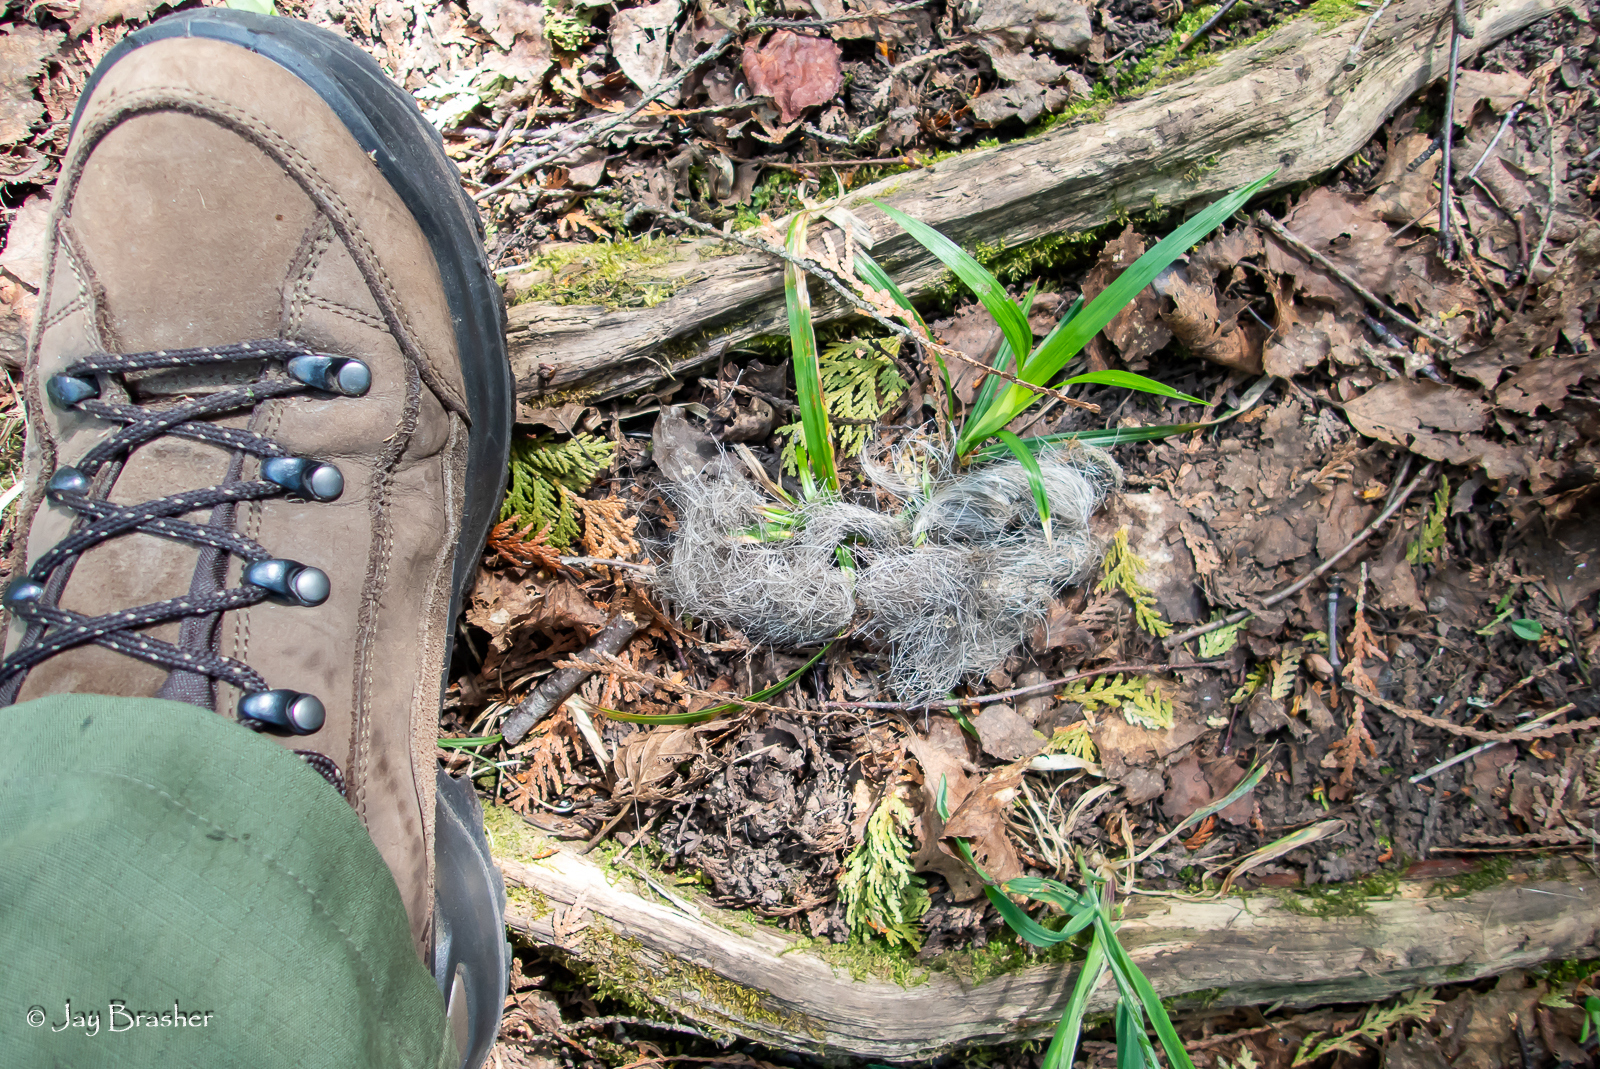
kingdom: Animalia
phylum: Chordata
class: Mammalia
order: Carnivora
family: Canidae
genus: Canis
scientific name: Canis lupus
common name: Gray wolf
